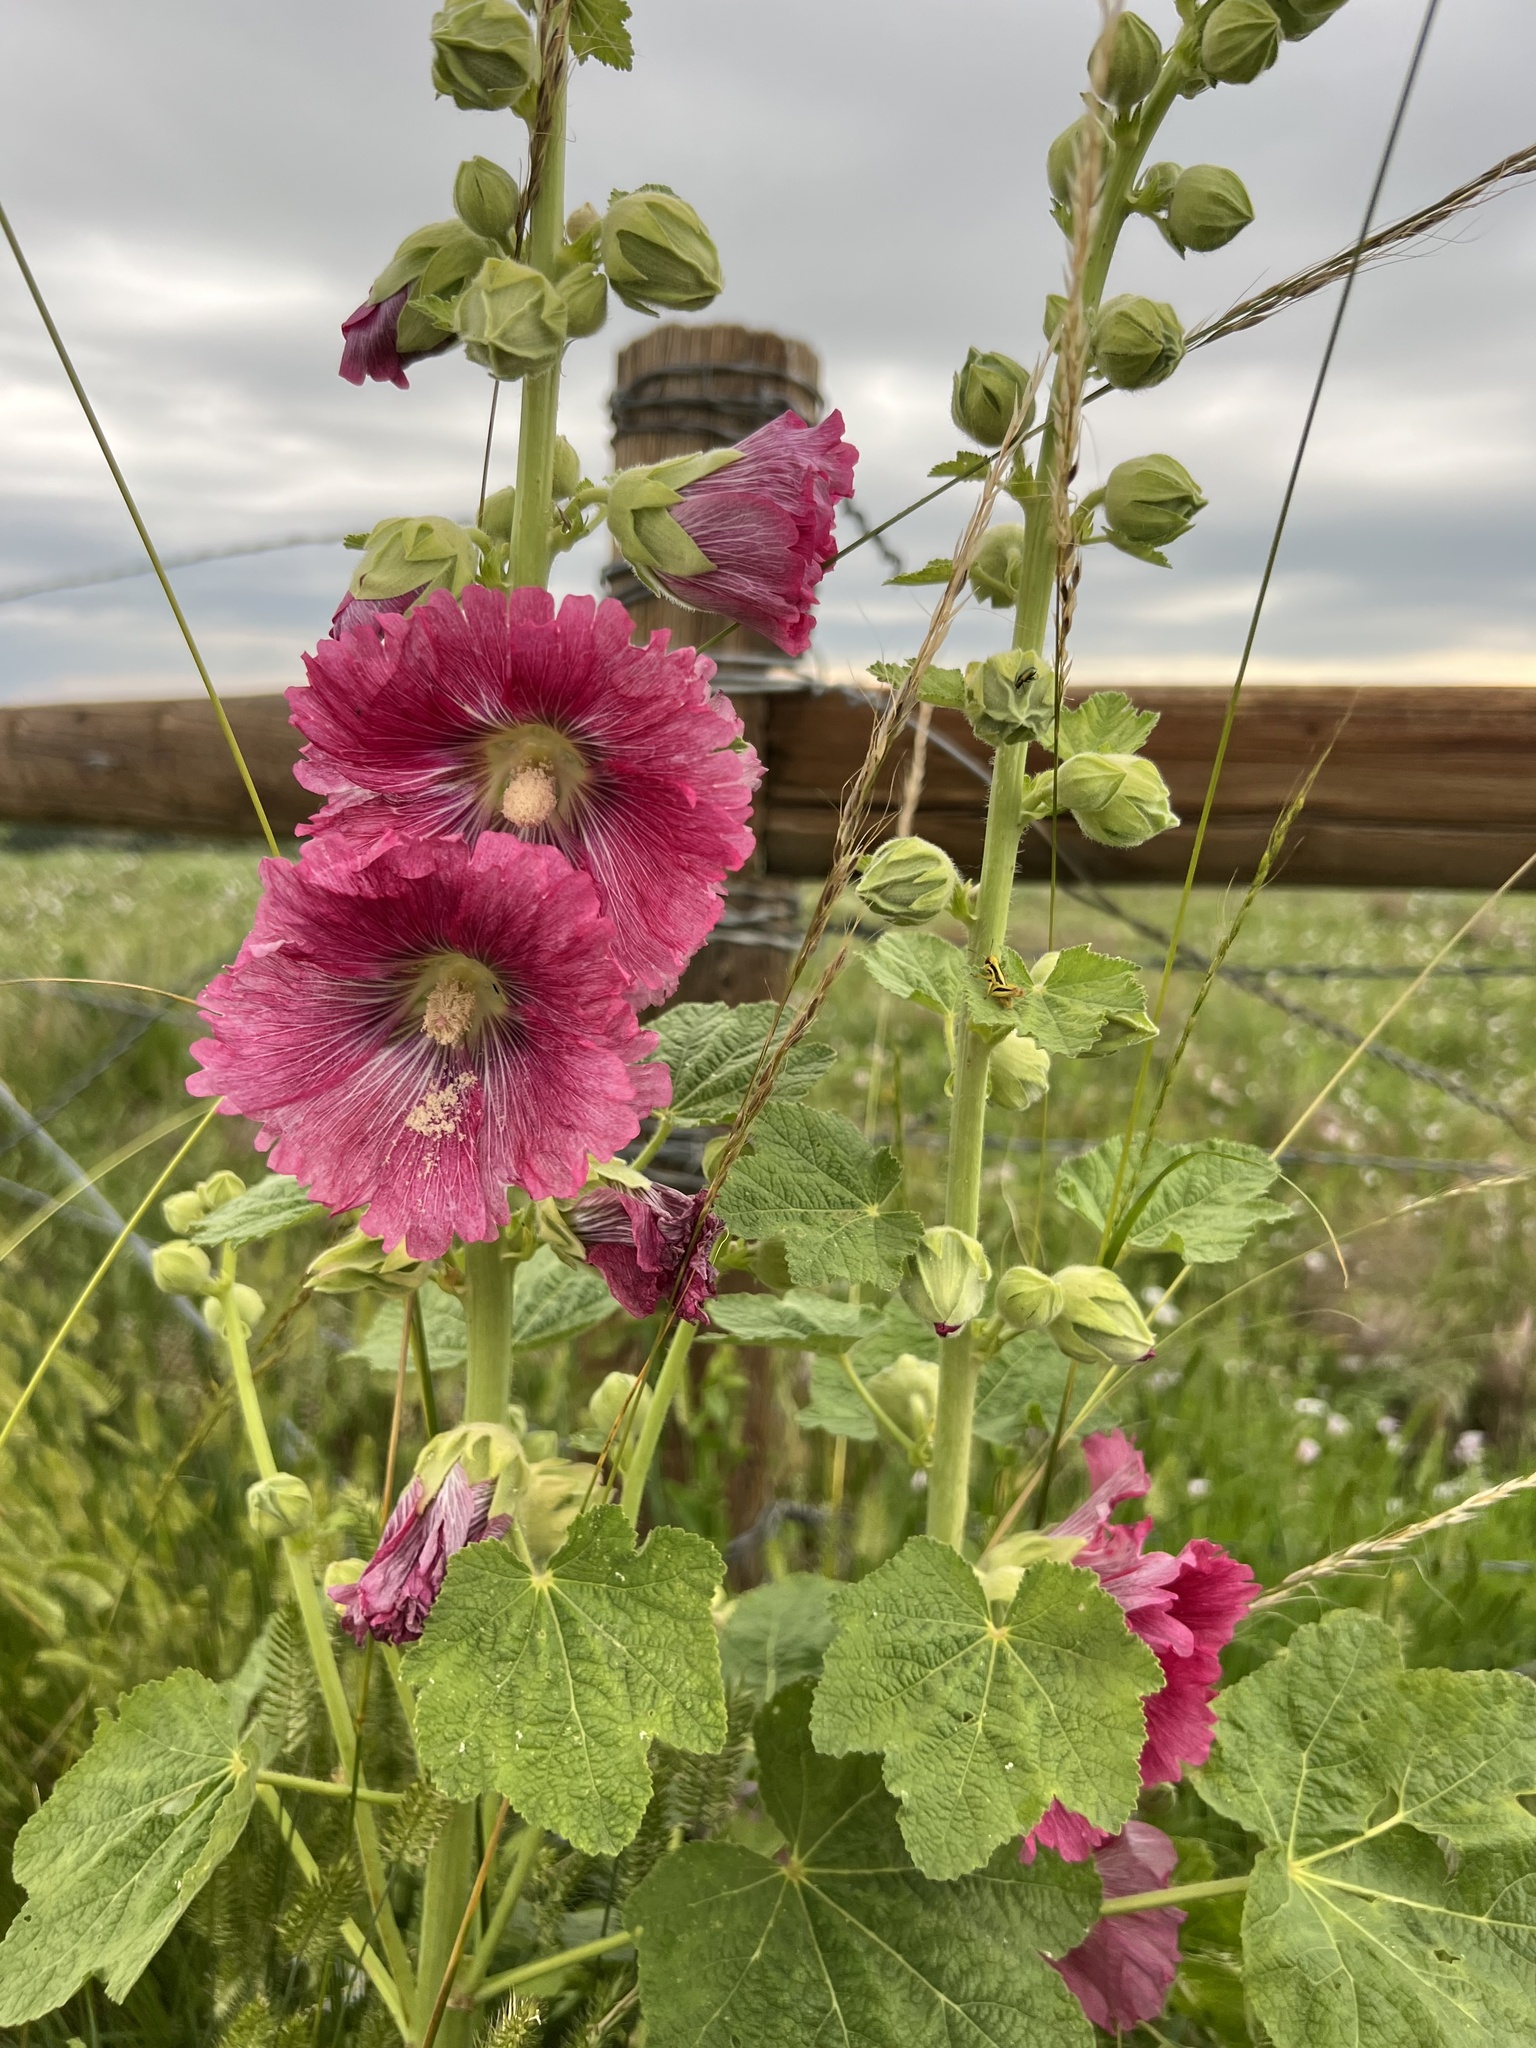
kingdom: Plantae
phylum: Tracheophyta
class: Magnoliopsida
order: Malvales
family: Malvaceae
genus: Alcea
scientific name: Alcea rosea
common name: Hollyhock
